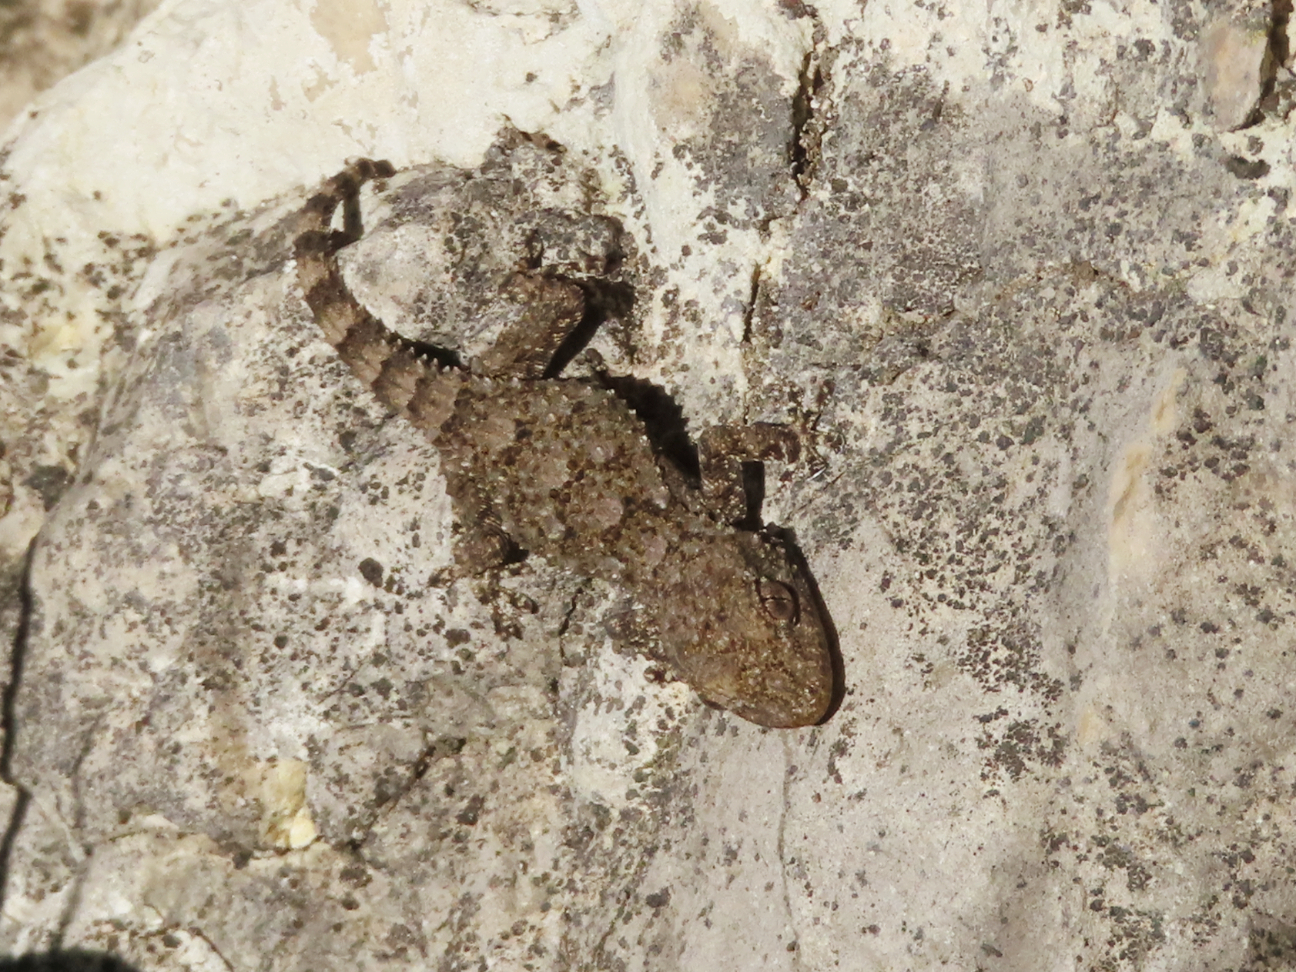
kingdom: Animalia
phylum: Chordata
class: Squamata
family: Phyllodactylidae
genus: Tarentola
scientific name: Tarentola mauritanica
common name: Moorish gecko
